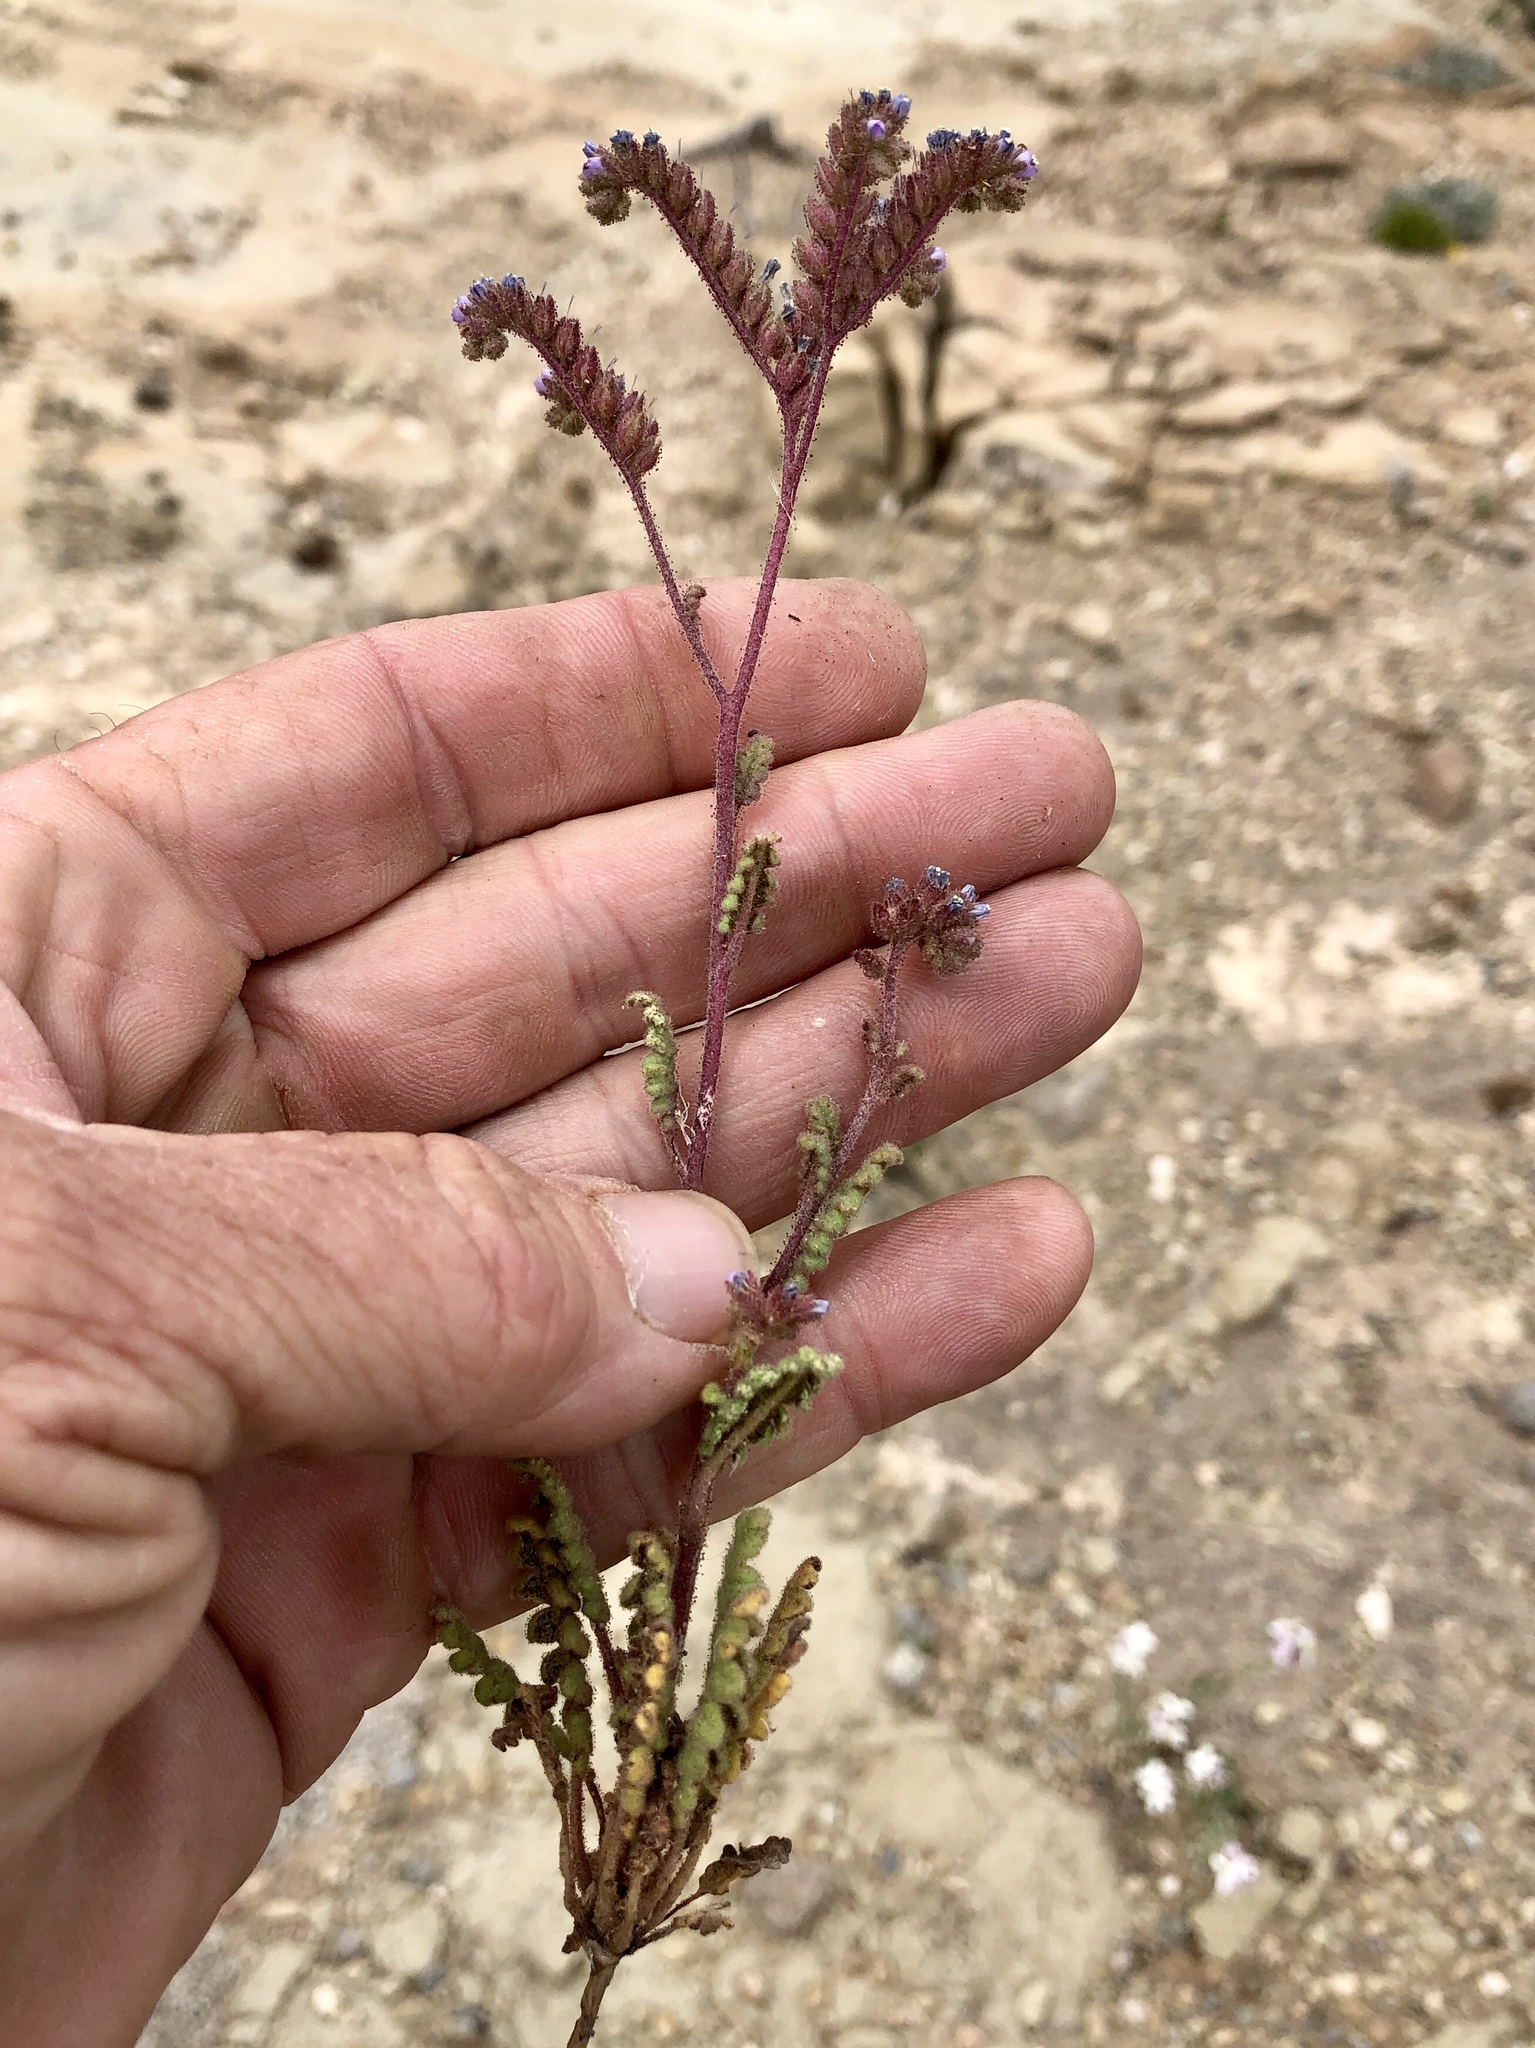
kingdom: Plantae
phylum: Tracheophyta
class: Magnoliopsida
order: Boraginales
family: Hydrophyllaceae
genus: Phacelia
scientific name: Phacelia coerulea
